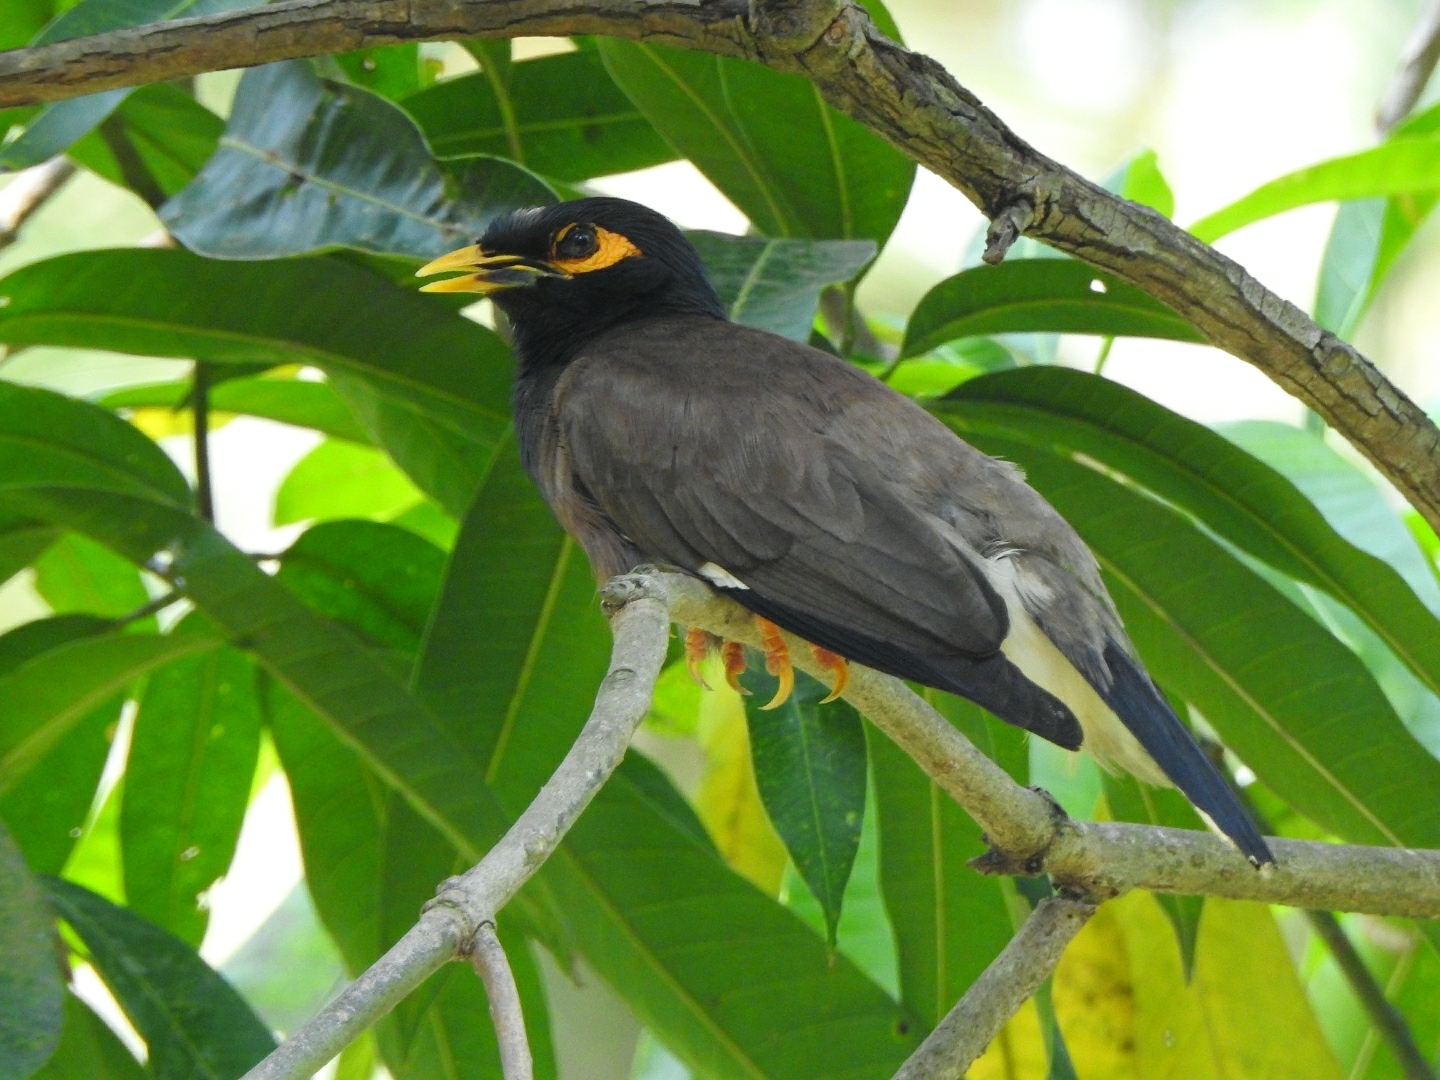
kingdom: Animalia
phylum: Chordata
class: Aves
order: Passeriformes
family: Sturnidae
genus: Acridotheres
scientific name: Acridotheres tristis
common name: Common myna
